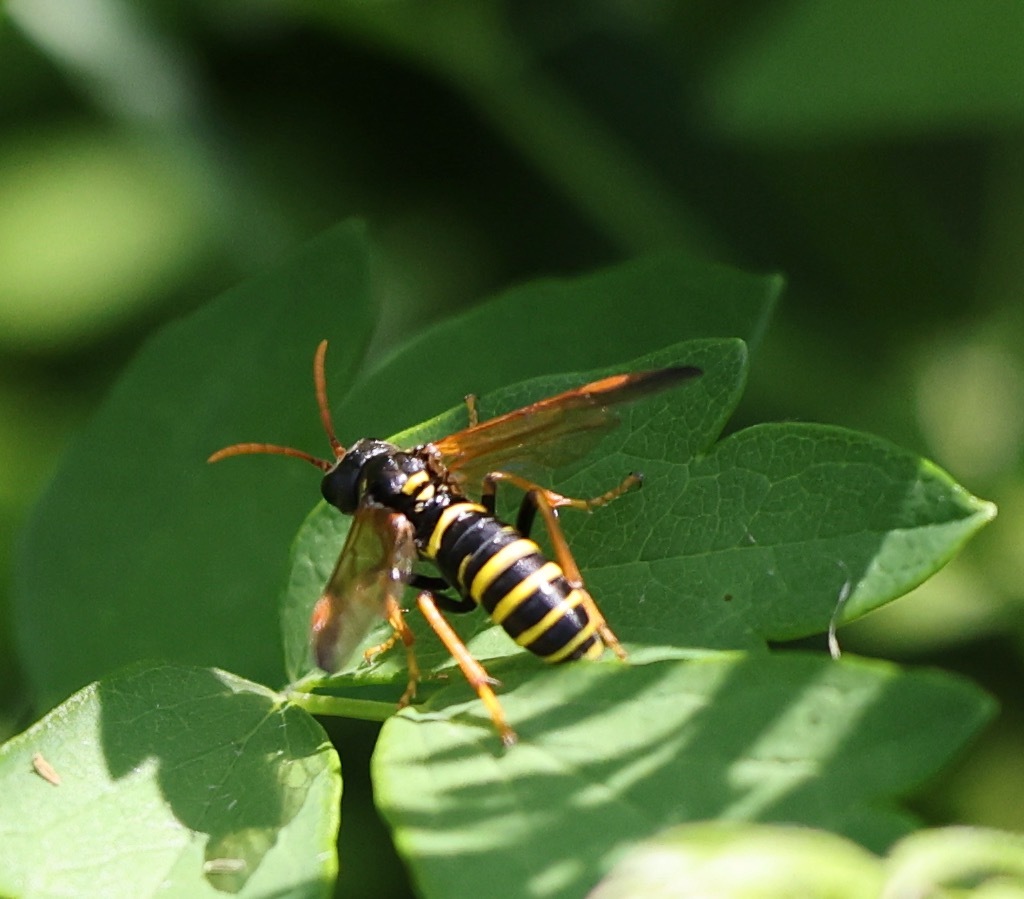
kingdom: Animalia
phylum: Arthropoda
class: Insecta
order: Hymenoptera
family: Tenthredinidae
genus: Tenthredo
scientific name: Tenthredo scrophulariae
